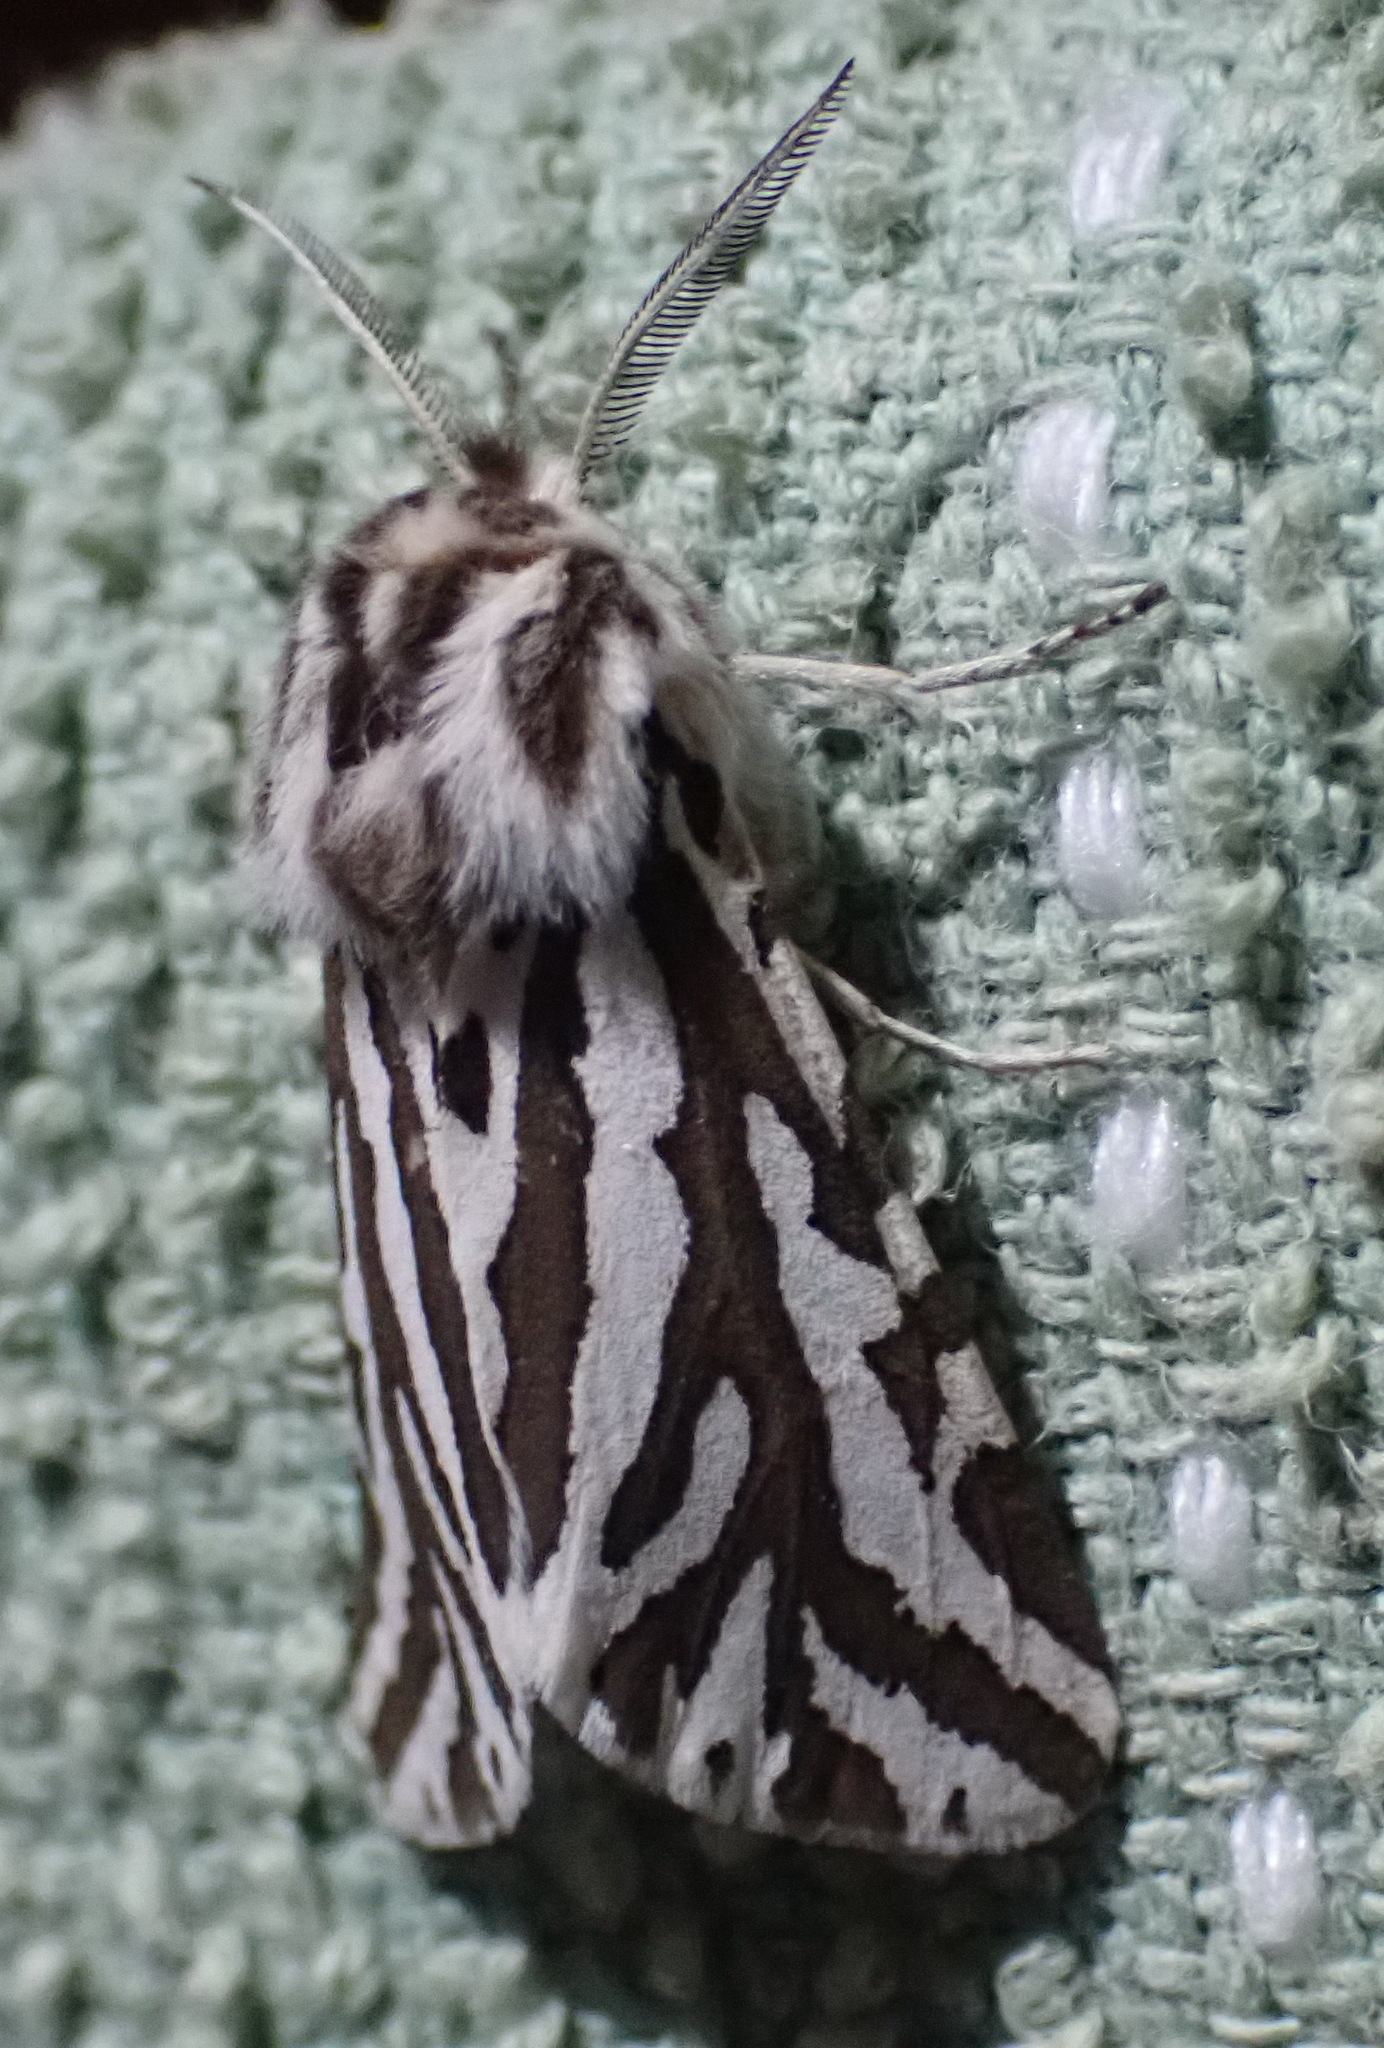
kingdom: Animalia
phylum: Arthropoda
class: Insecta
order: Lepidoptera
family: Erebidae
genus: Paralacydes
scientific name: Paralacydes vocula
